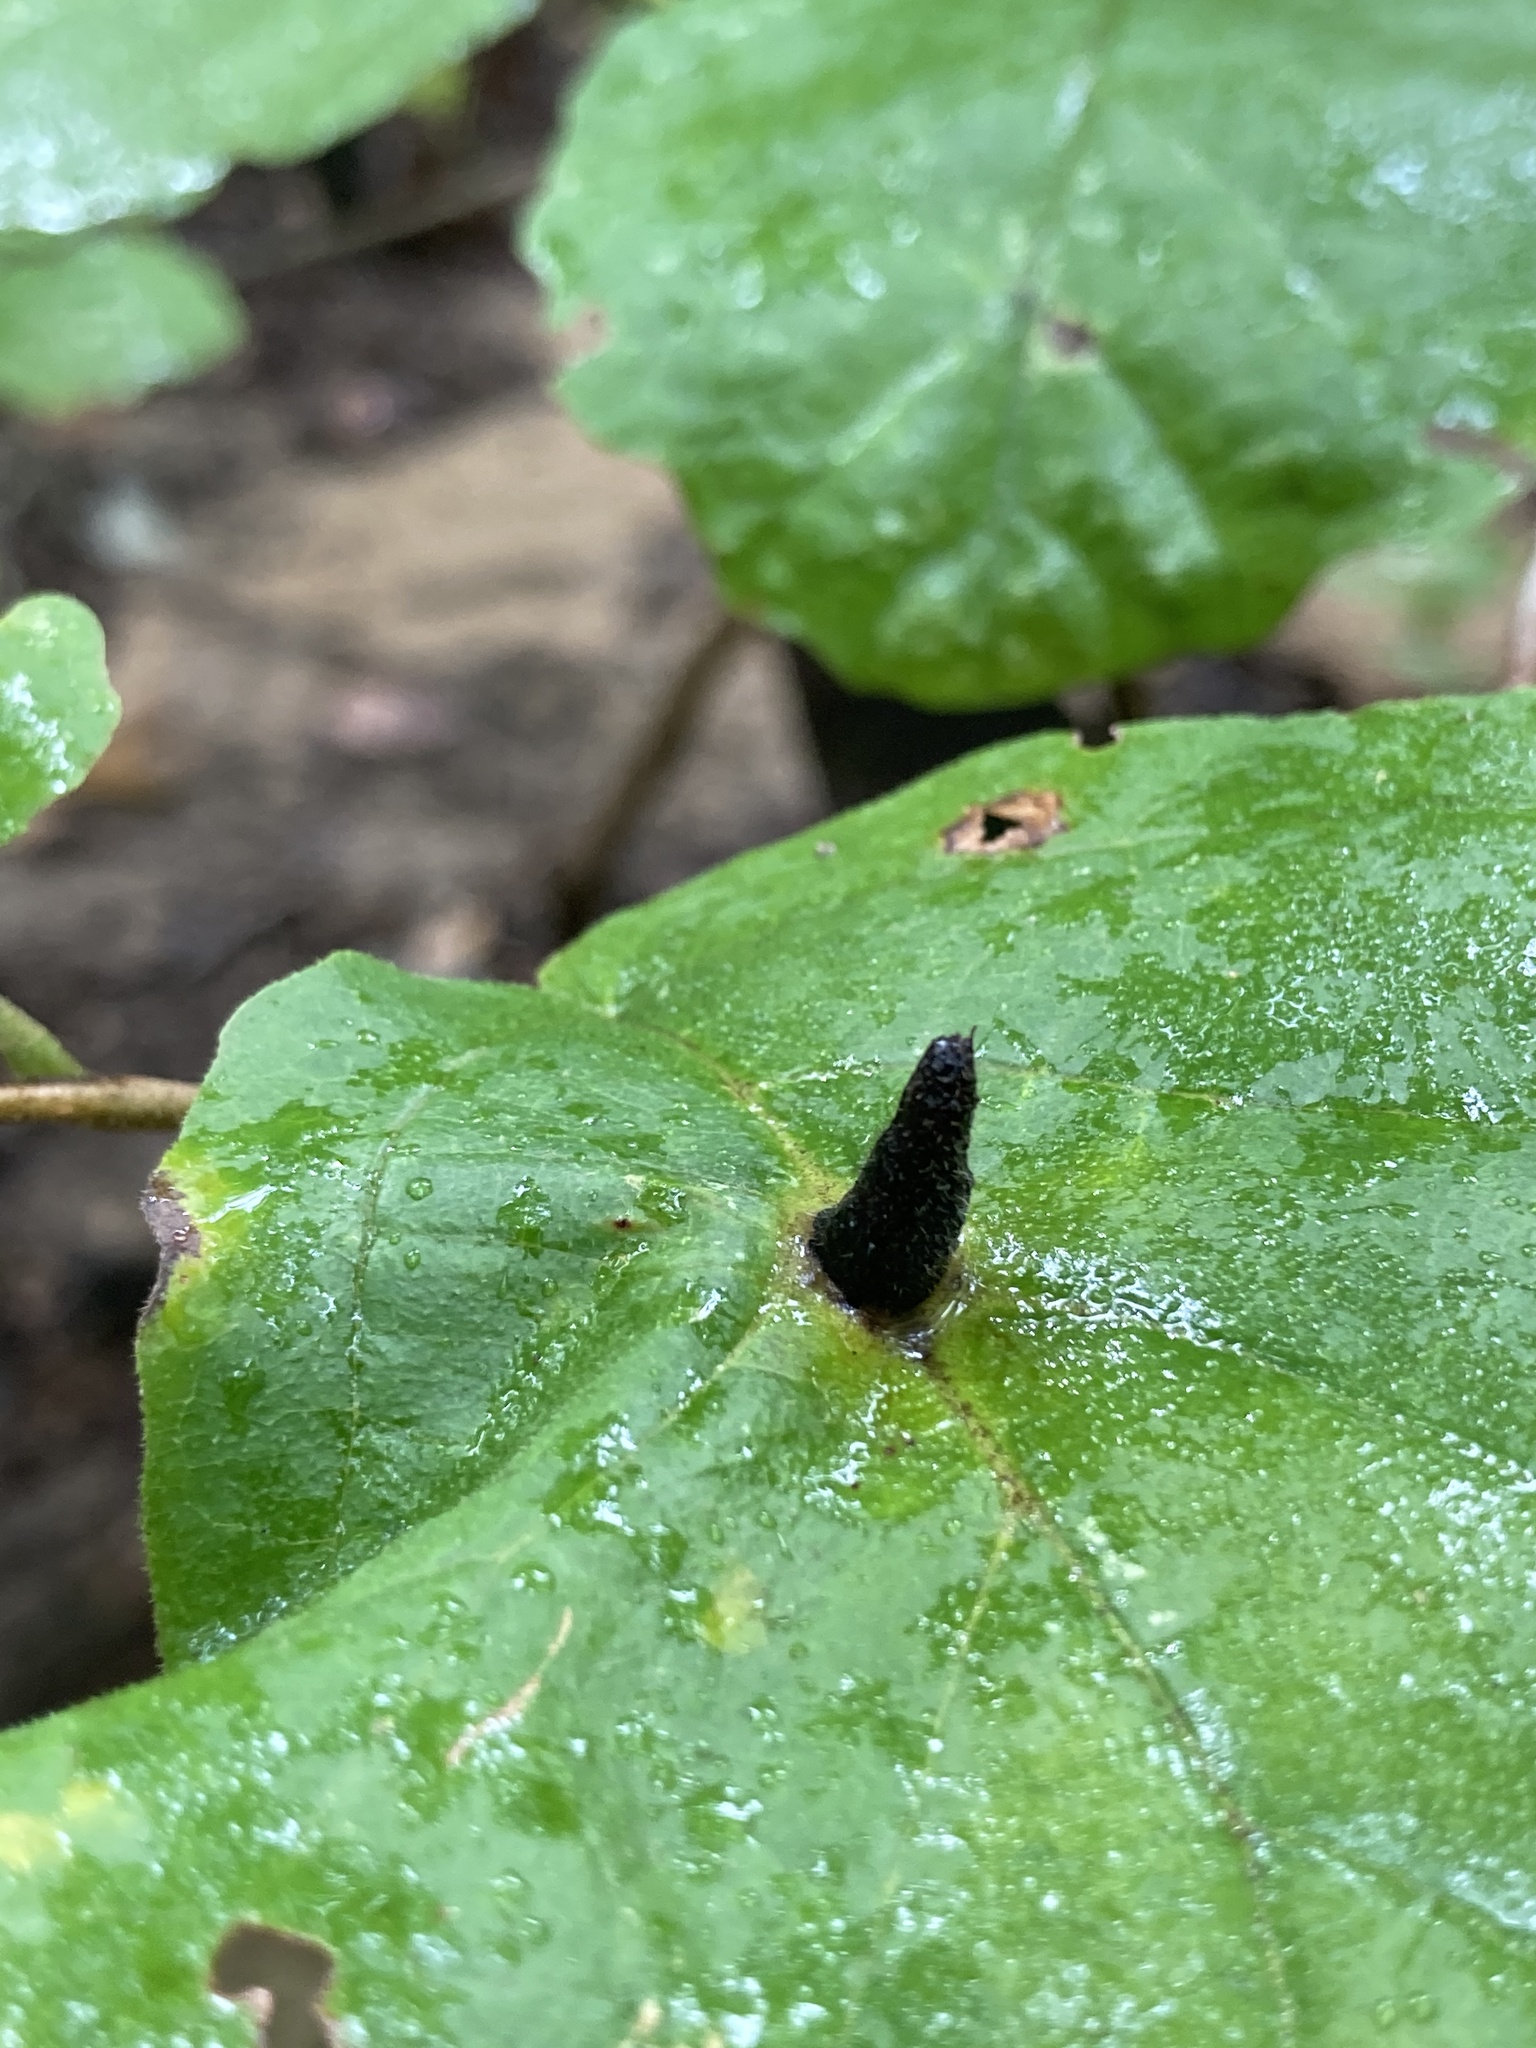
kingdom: Animalia
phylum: Arthropoda
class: Insecta
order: Hemiptera
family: Aphididae
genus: Hormaphis
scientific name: Hormaphis hamamelidis
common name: Witch-hazel cone gall aphid
